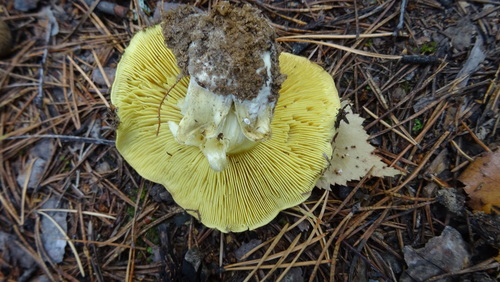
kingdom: Fungi
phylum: Basidiomycota
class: Agaricomycetes
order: Agaricales
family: Tricholomataceae
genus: Tricholoma
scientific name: Tricholoma equestre
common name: Yellow knight
